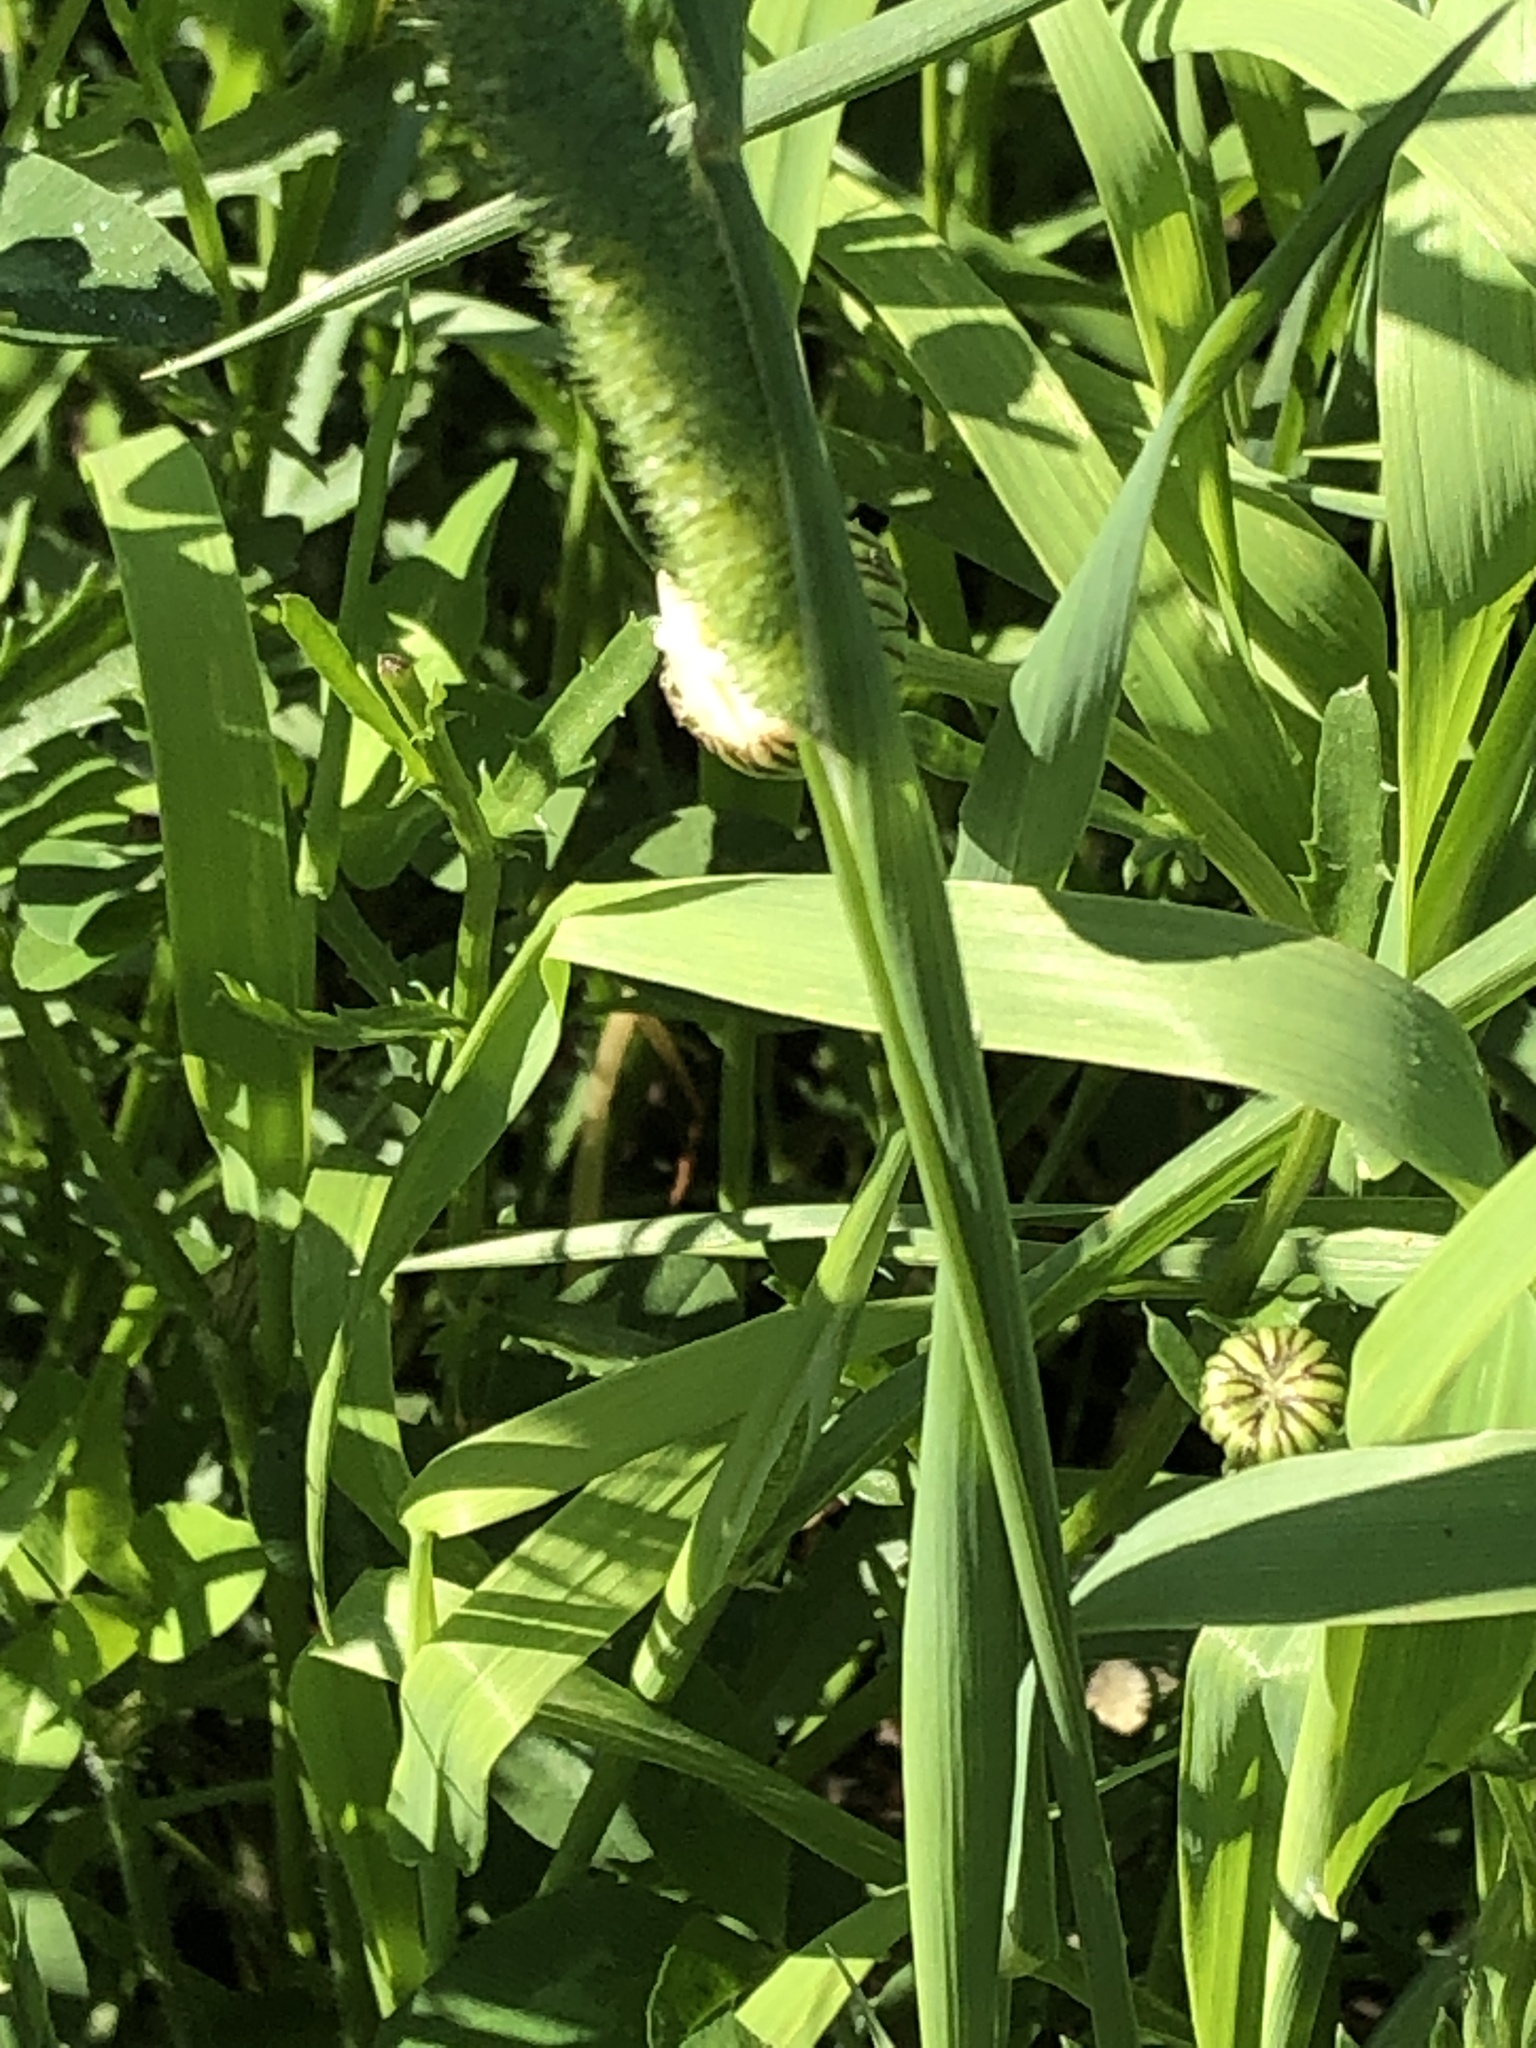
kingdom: Plantae
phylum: Tracheophyta
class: Liliopsida
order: Poales
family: Poaceae
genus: Phleum
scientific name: Phleum pratense
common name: Timothy grass
